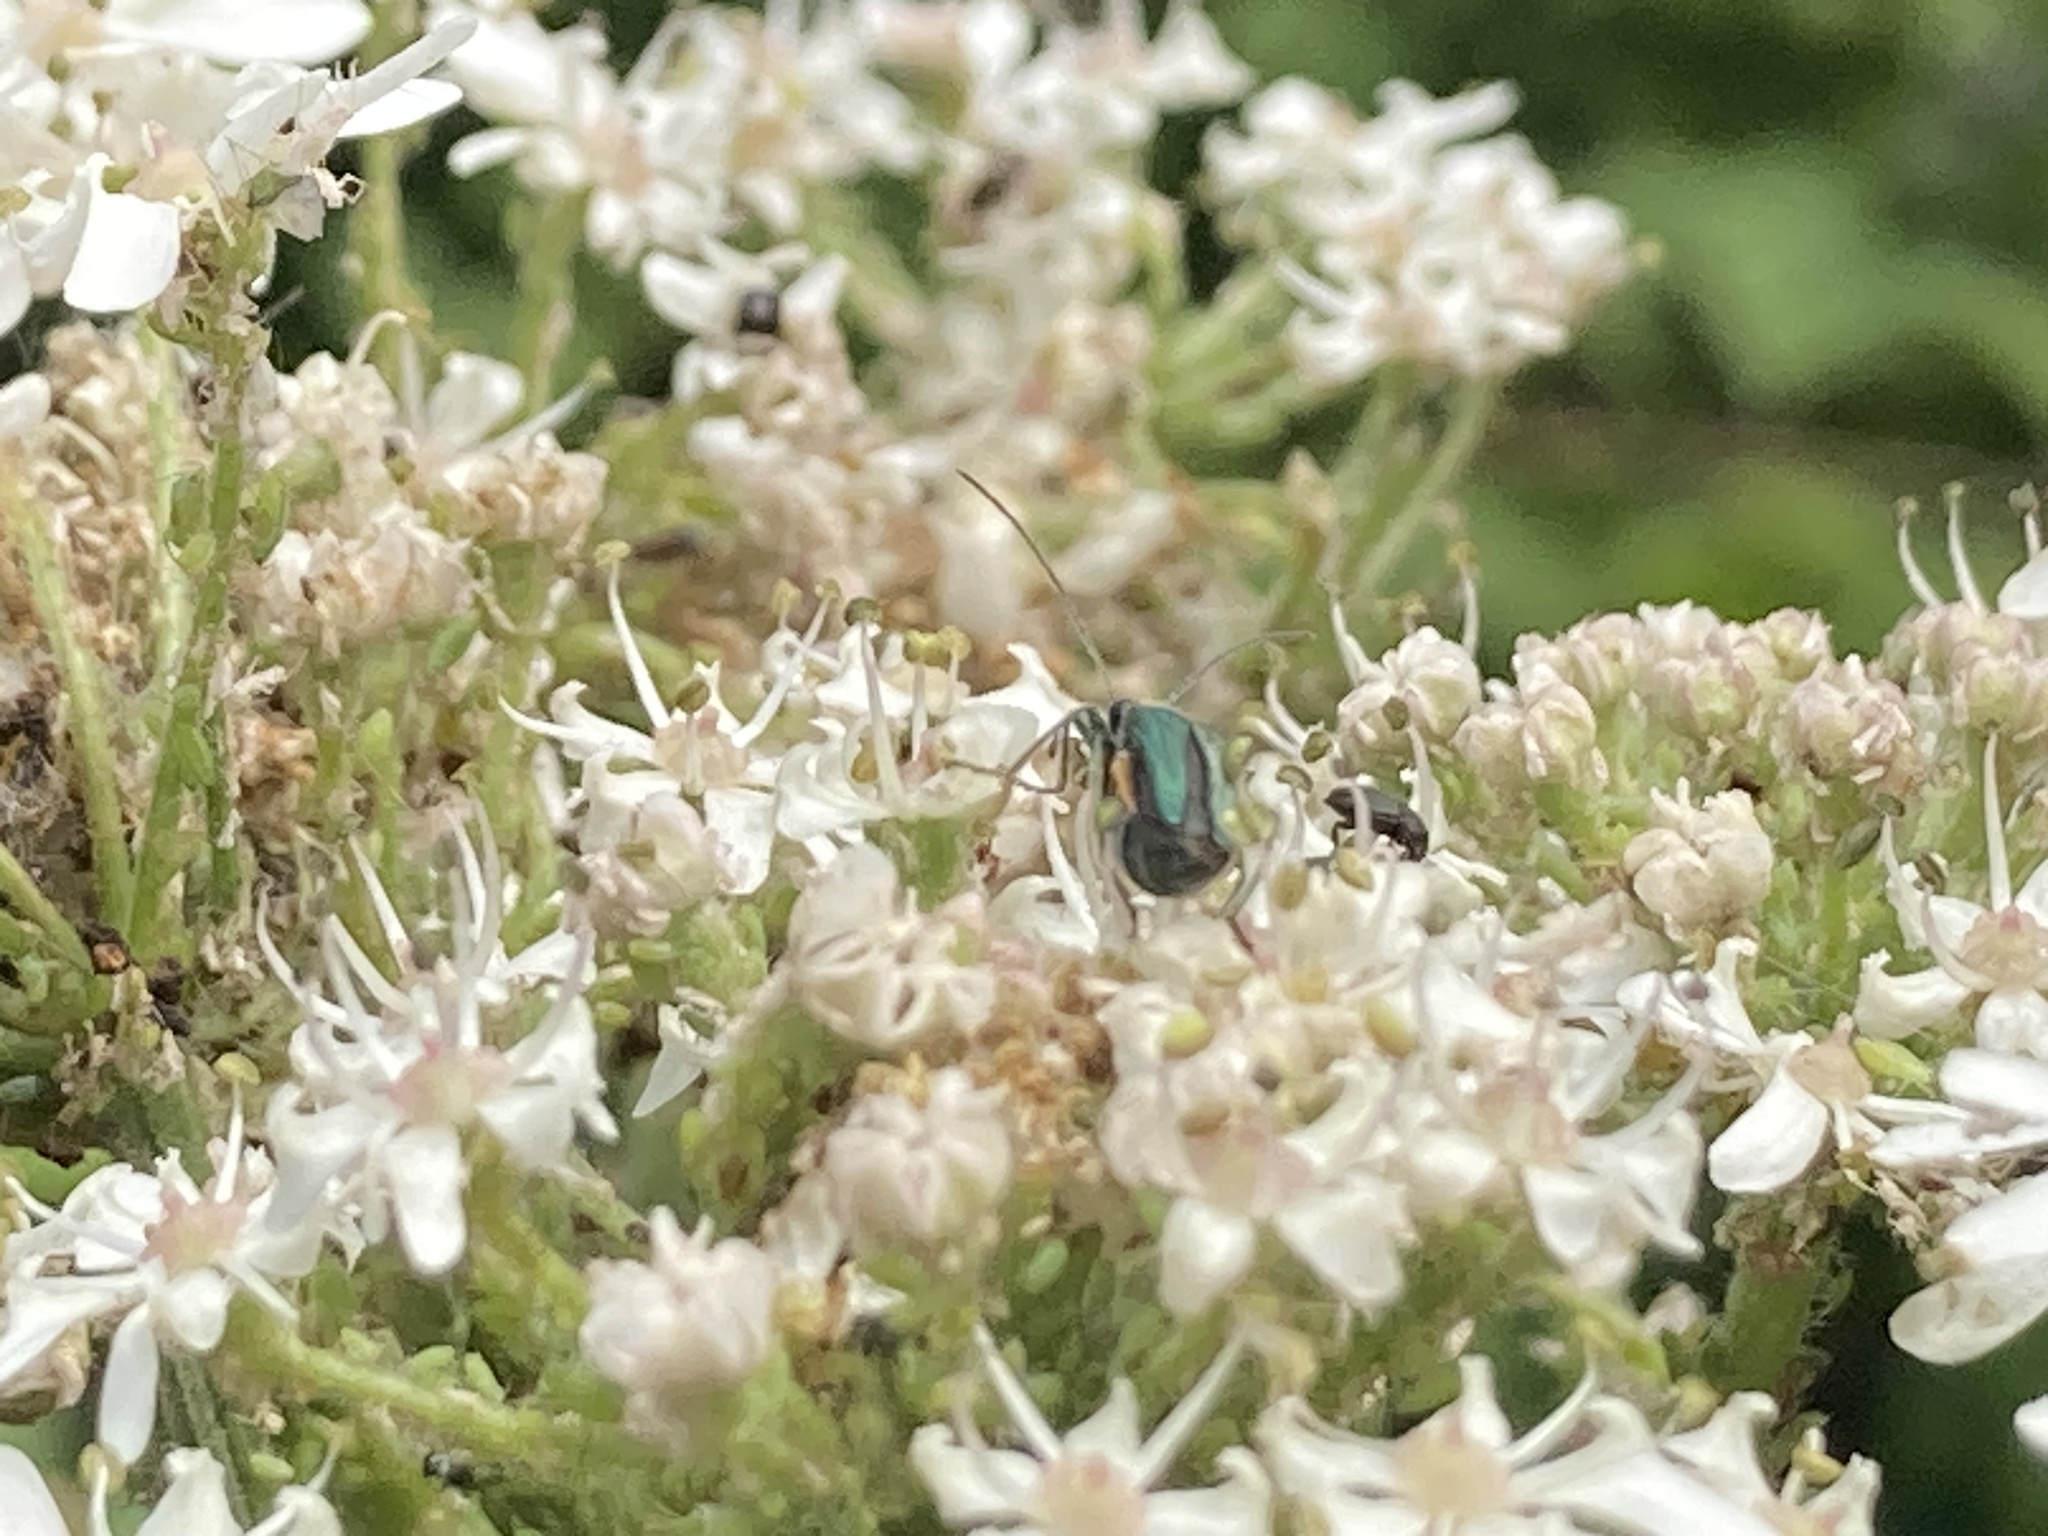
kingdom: Animalia
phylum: Arthropoda
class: Insecta
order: Coleoptera
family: Oedemeridae
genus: Oedemera
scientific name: Oedemera nobilis
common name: Swollen-thighed beetle
